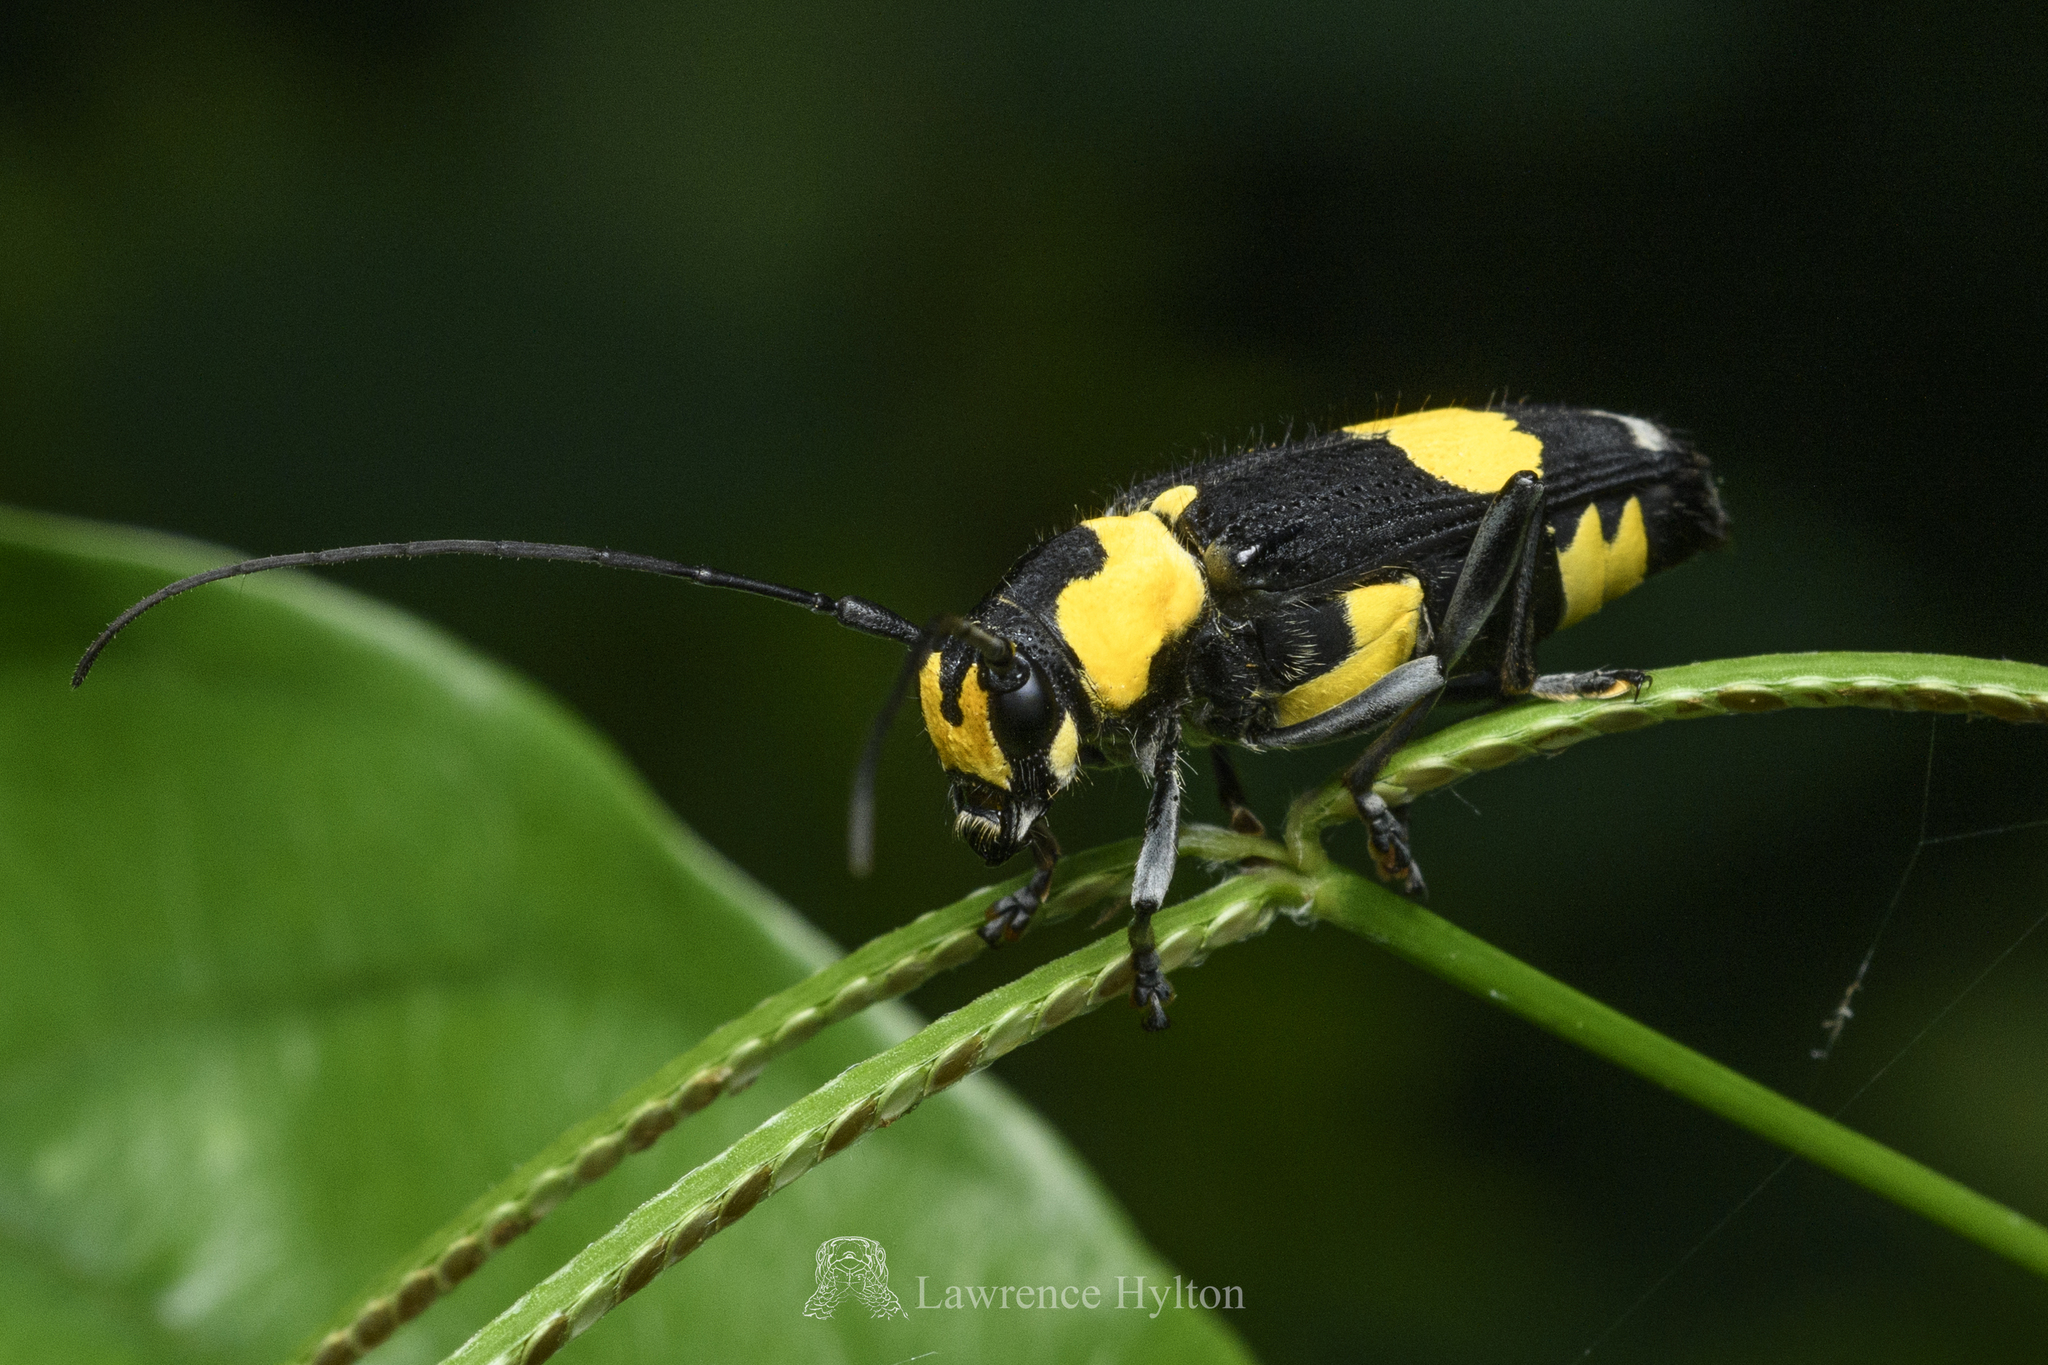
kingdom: Animalia
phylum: Arthropoda
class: Insecta
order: Coleoptera
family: Cerambycidae
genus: Glenea
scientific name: Glenea mouhotii
